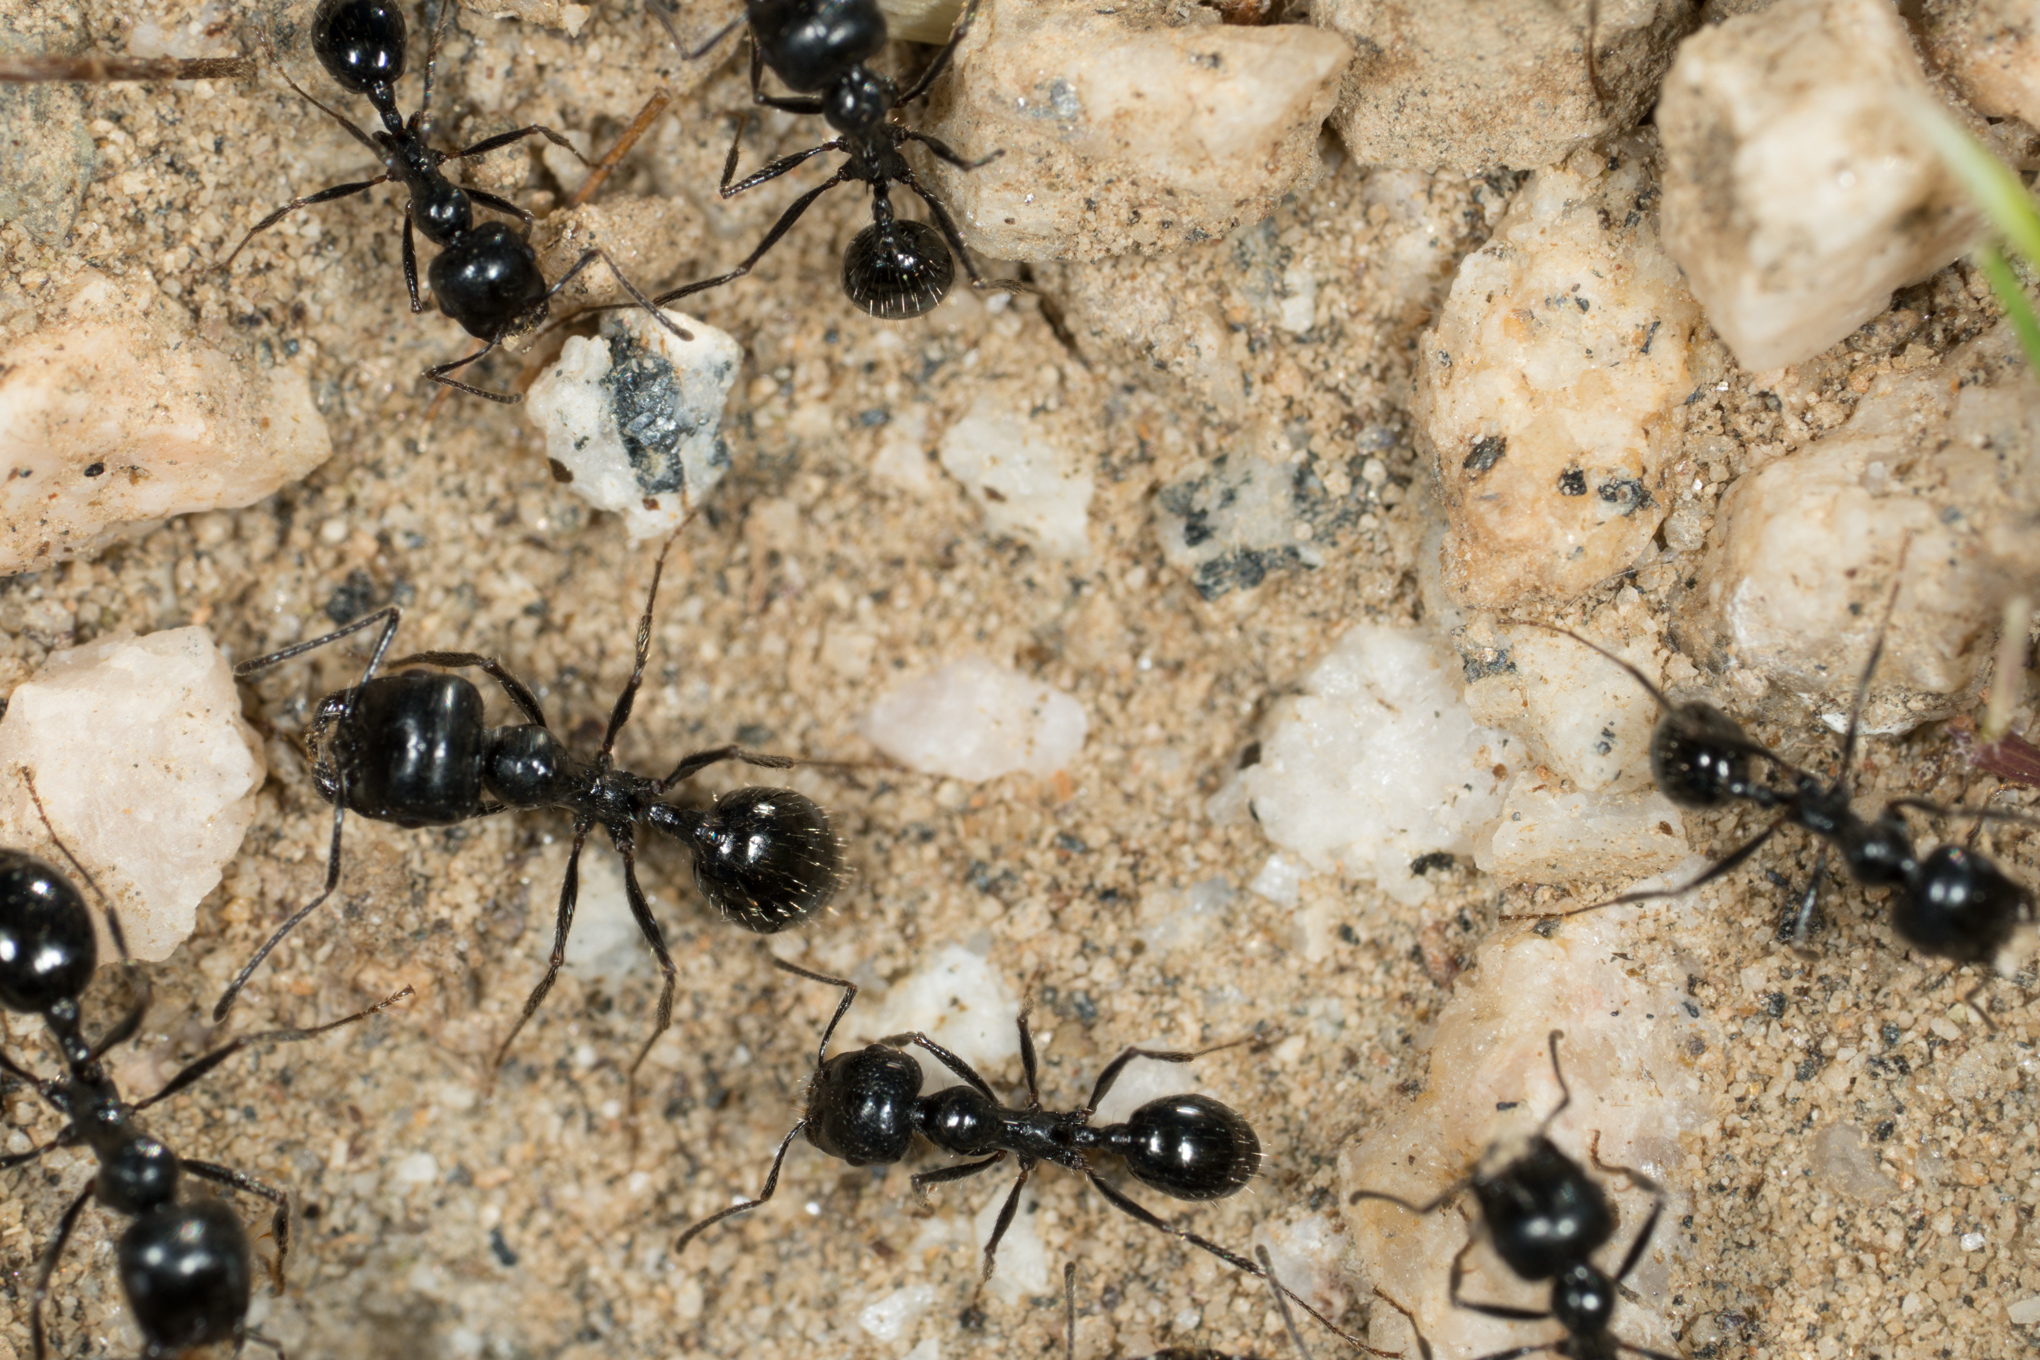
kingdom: Animalia
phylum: Arthropoda
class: Insecta
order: Hymenoptera
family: Formicidae
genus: Messor
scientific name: Messor pergandei
